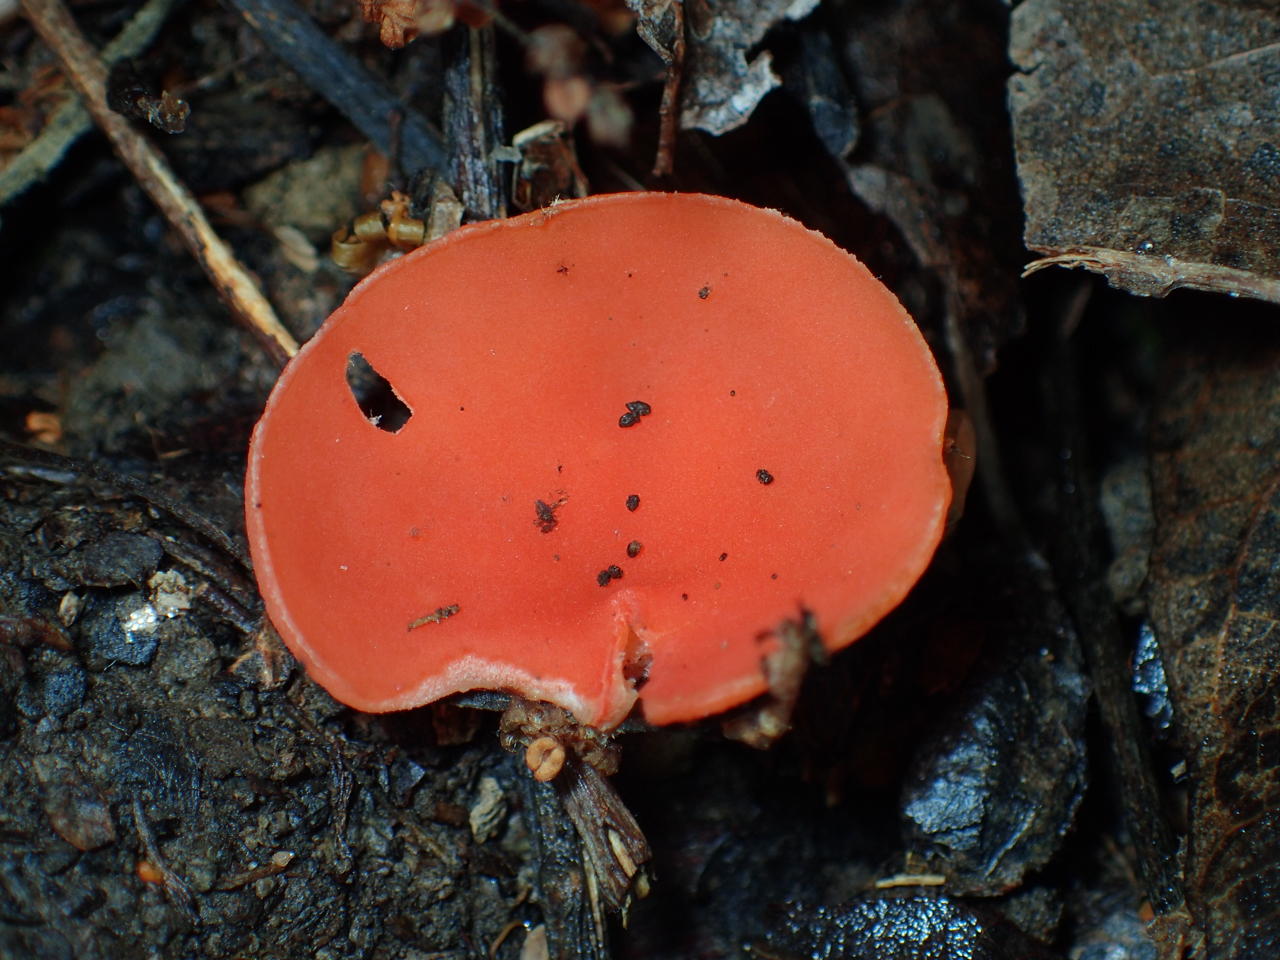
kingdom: Fungi
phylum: Ascomycota
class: Pezizomycetes
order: Pezizales
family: Sarcoscyphaceae
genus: Sarcoscypha
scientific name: Sarcoscypha occidentalis
